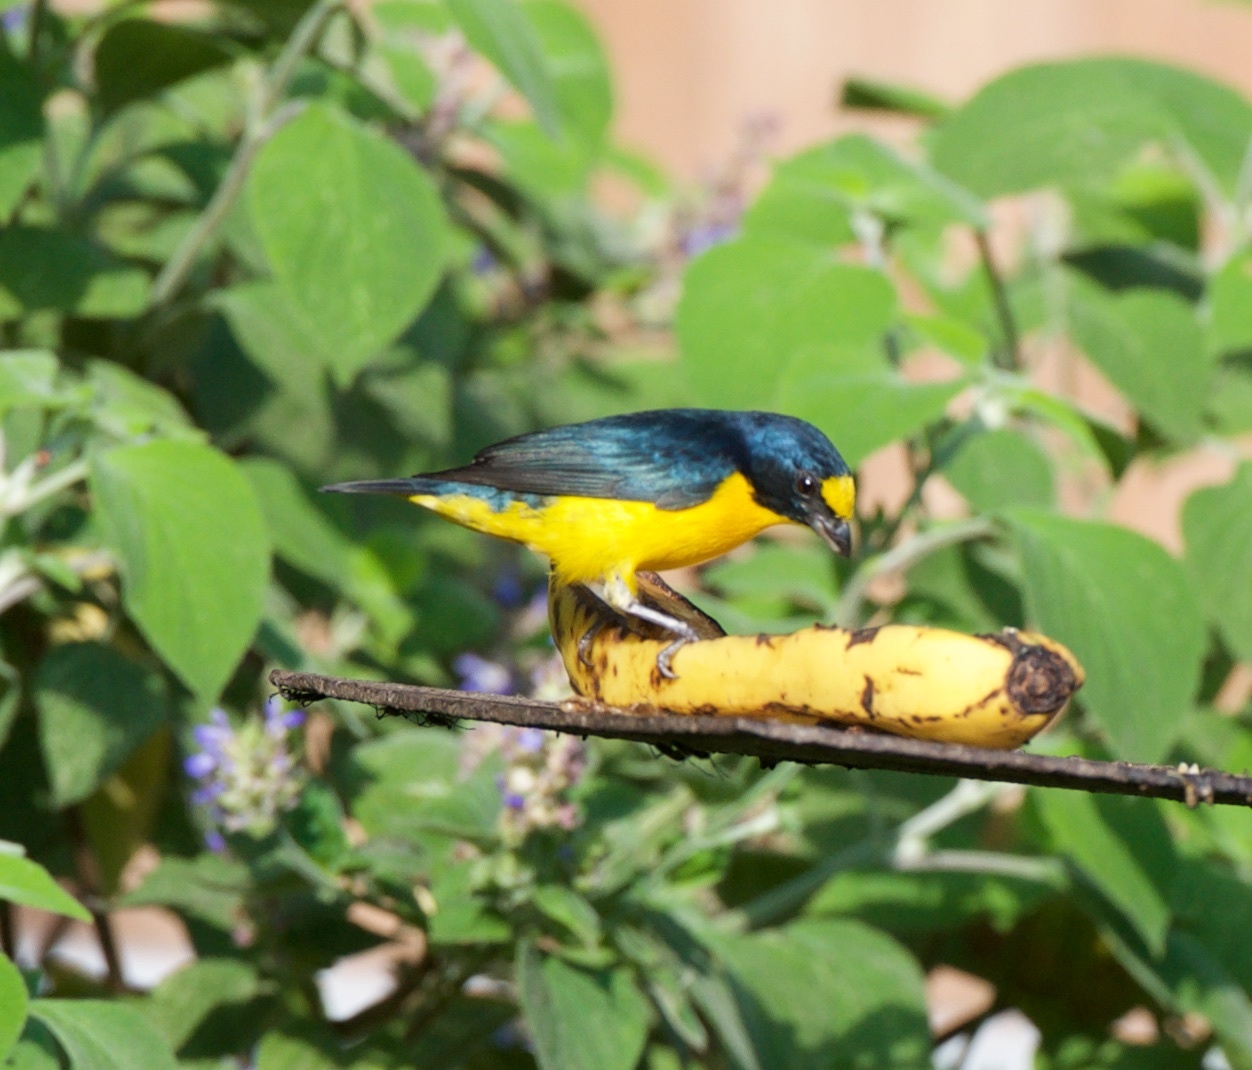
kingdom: Animalia
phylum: Chordata
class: Aves
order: Passeriformes
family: Fringillidae
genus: Euphonia
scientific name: Euphonia hirundinacea
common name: Yellow-throated euphonia
